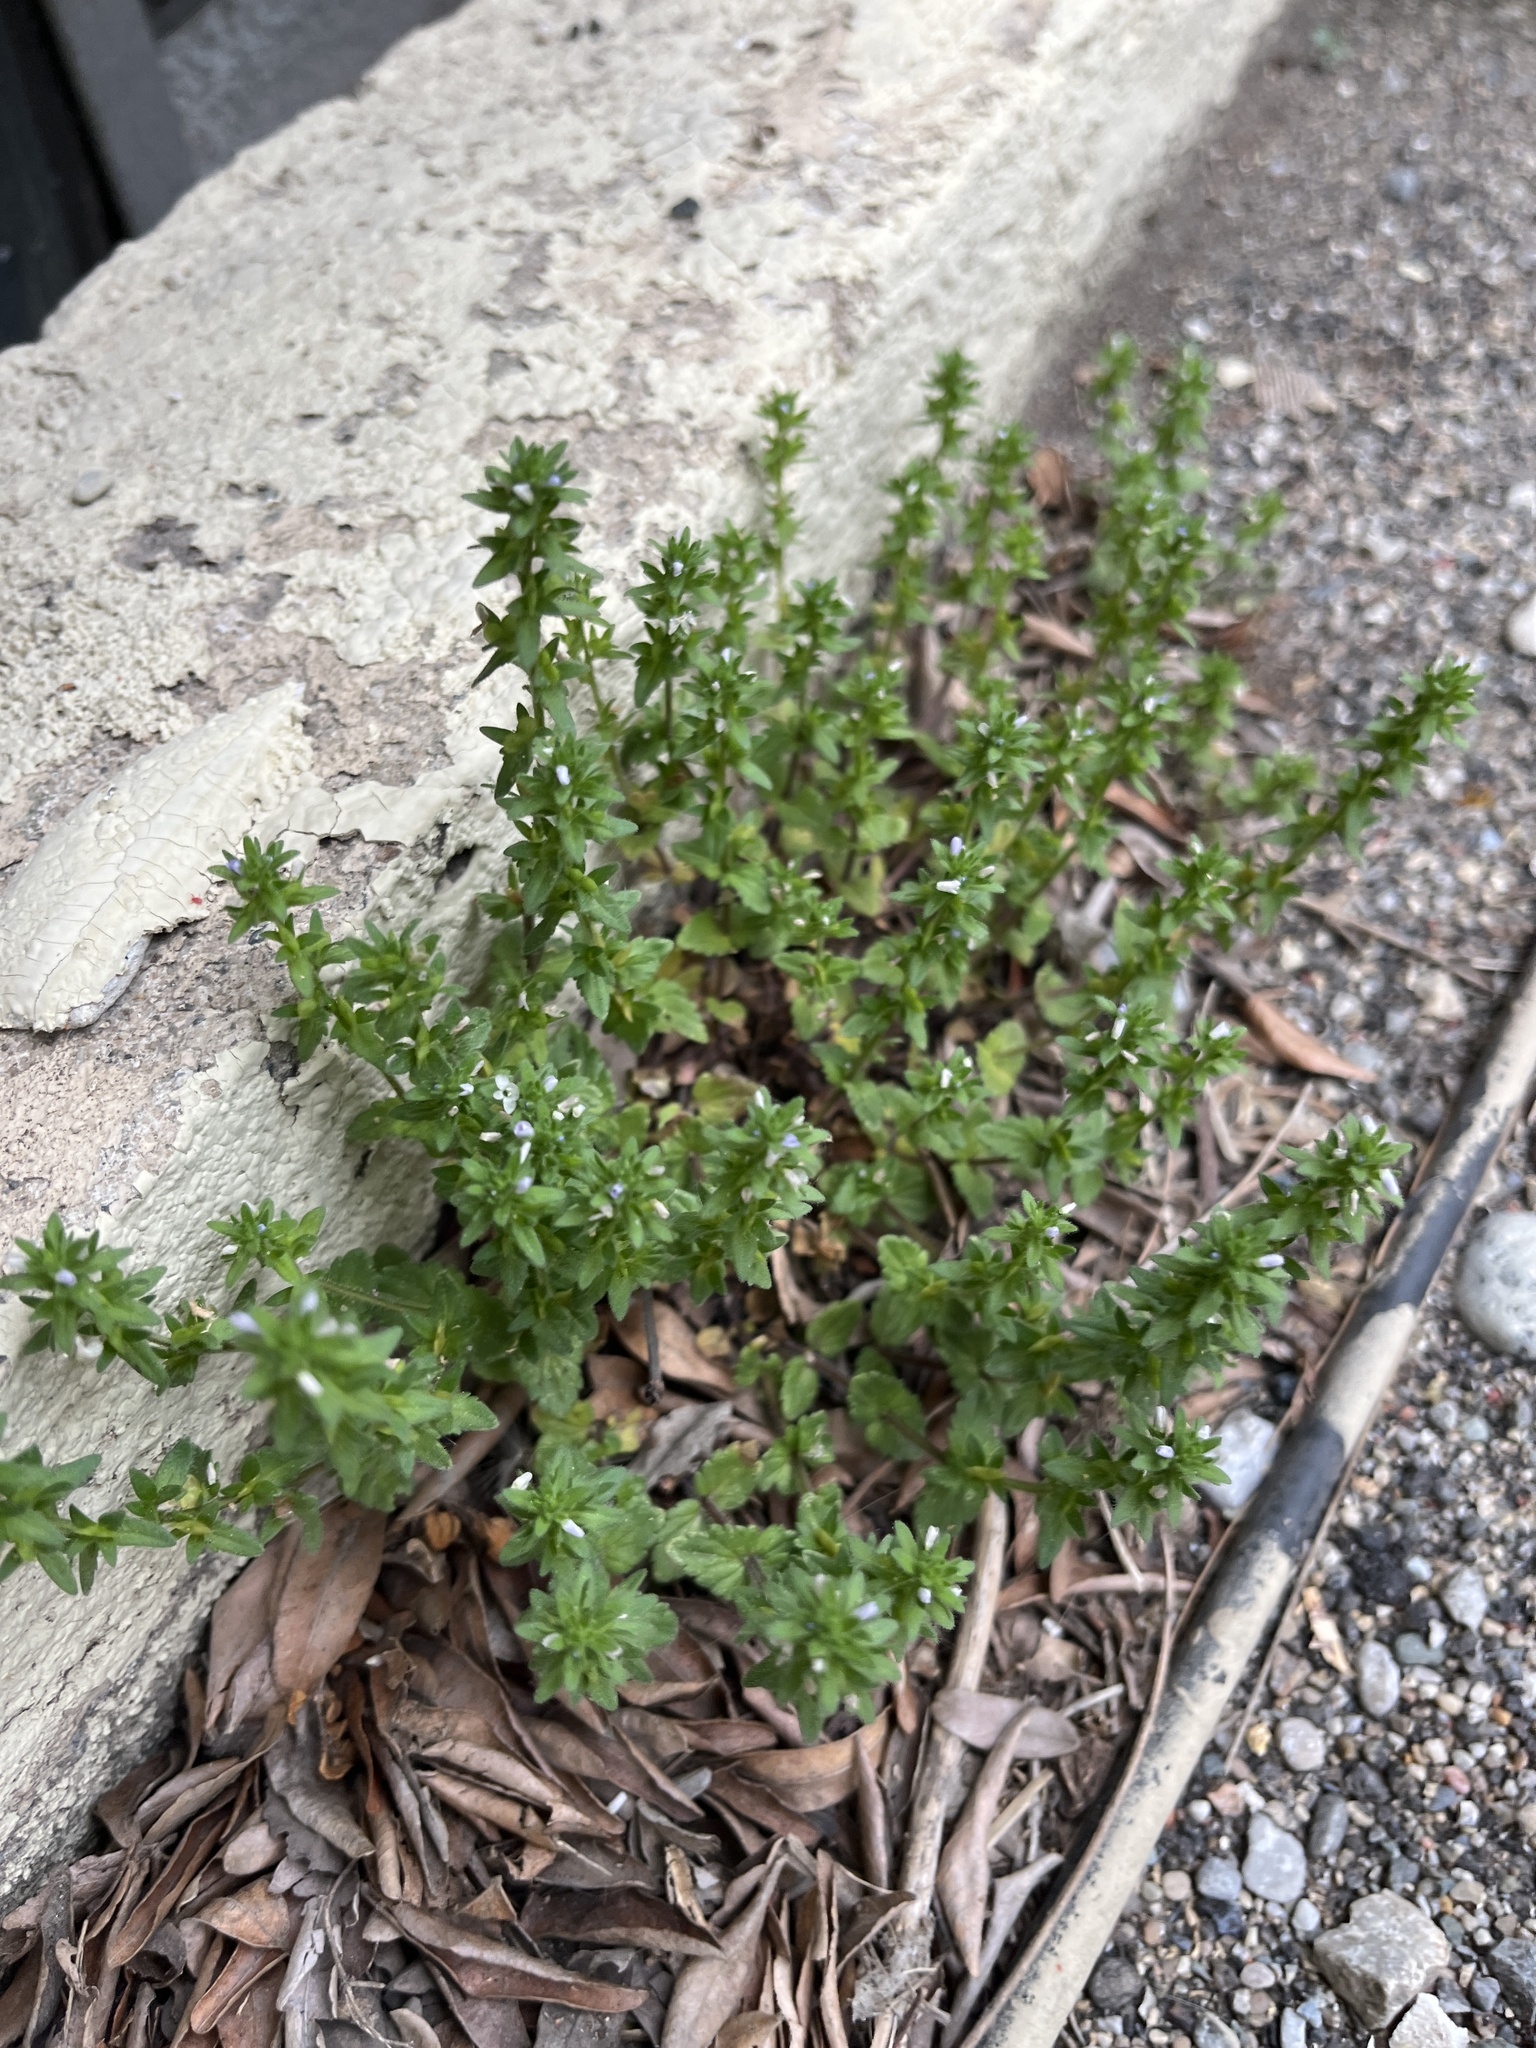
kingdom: Plantae
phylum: Tracheophyta
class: Magnoliopsida
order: Lamiales
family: Plantaginaceae
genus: Veronica
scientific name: Veronica arvensis
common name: Corn speedwell
